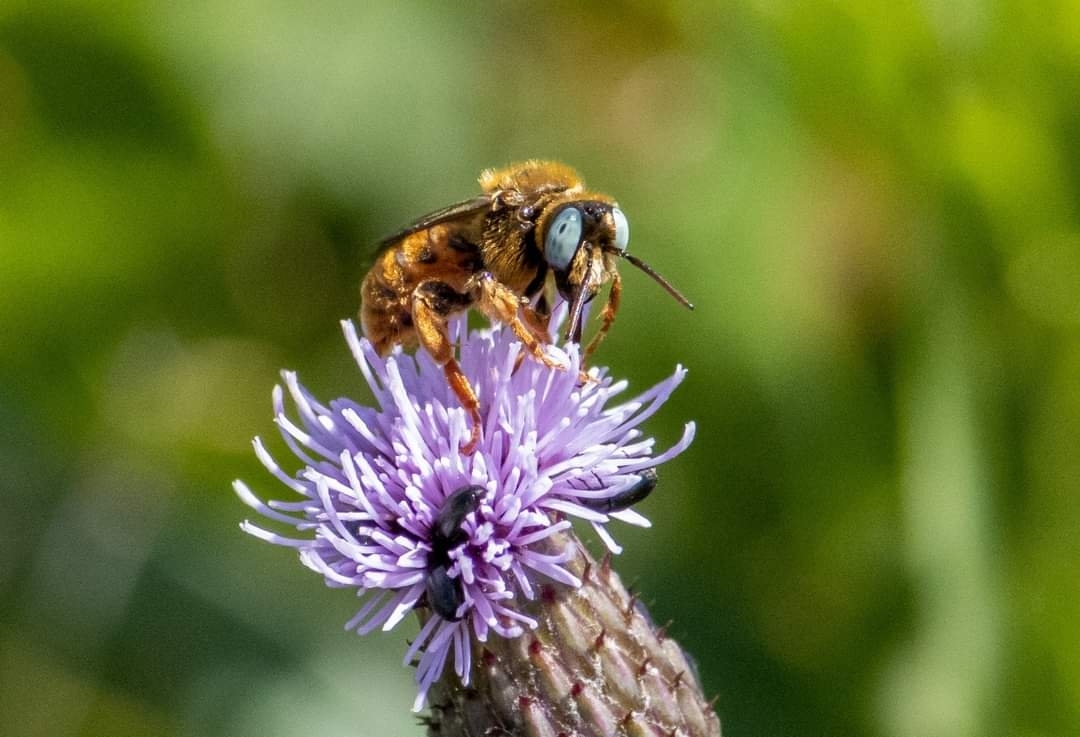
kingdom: Animalia
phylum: Arthropoda
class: Insecta
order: Hymenoptera
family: Apidae
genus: Epeoloides
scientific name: Epeoloides coecutiens
